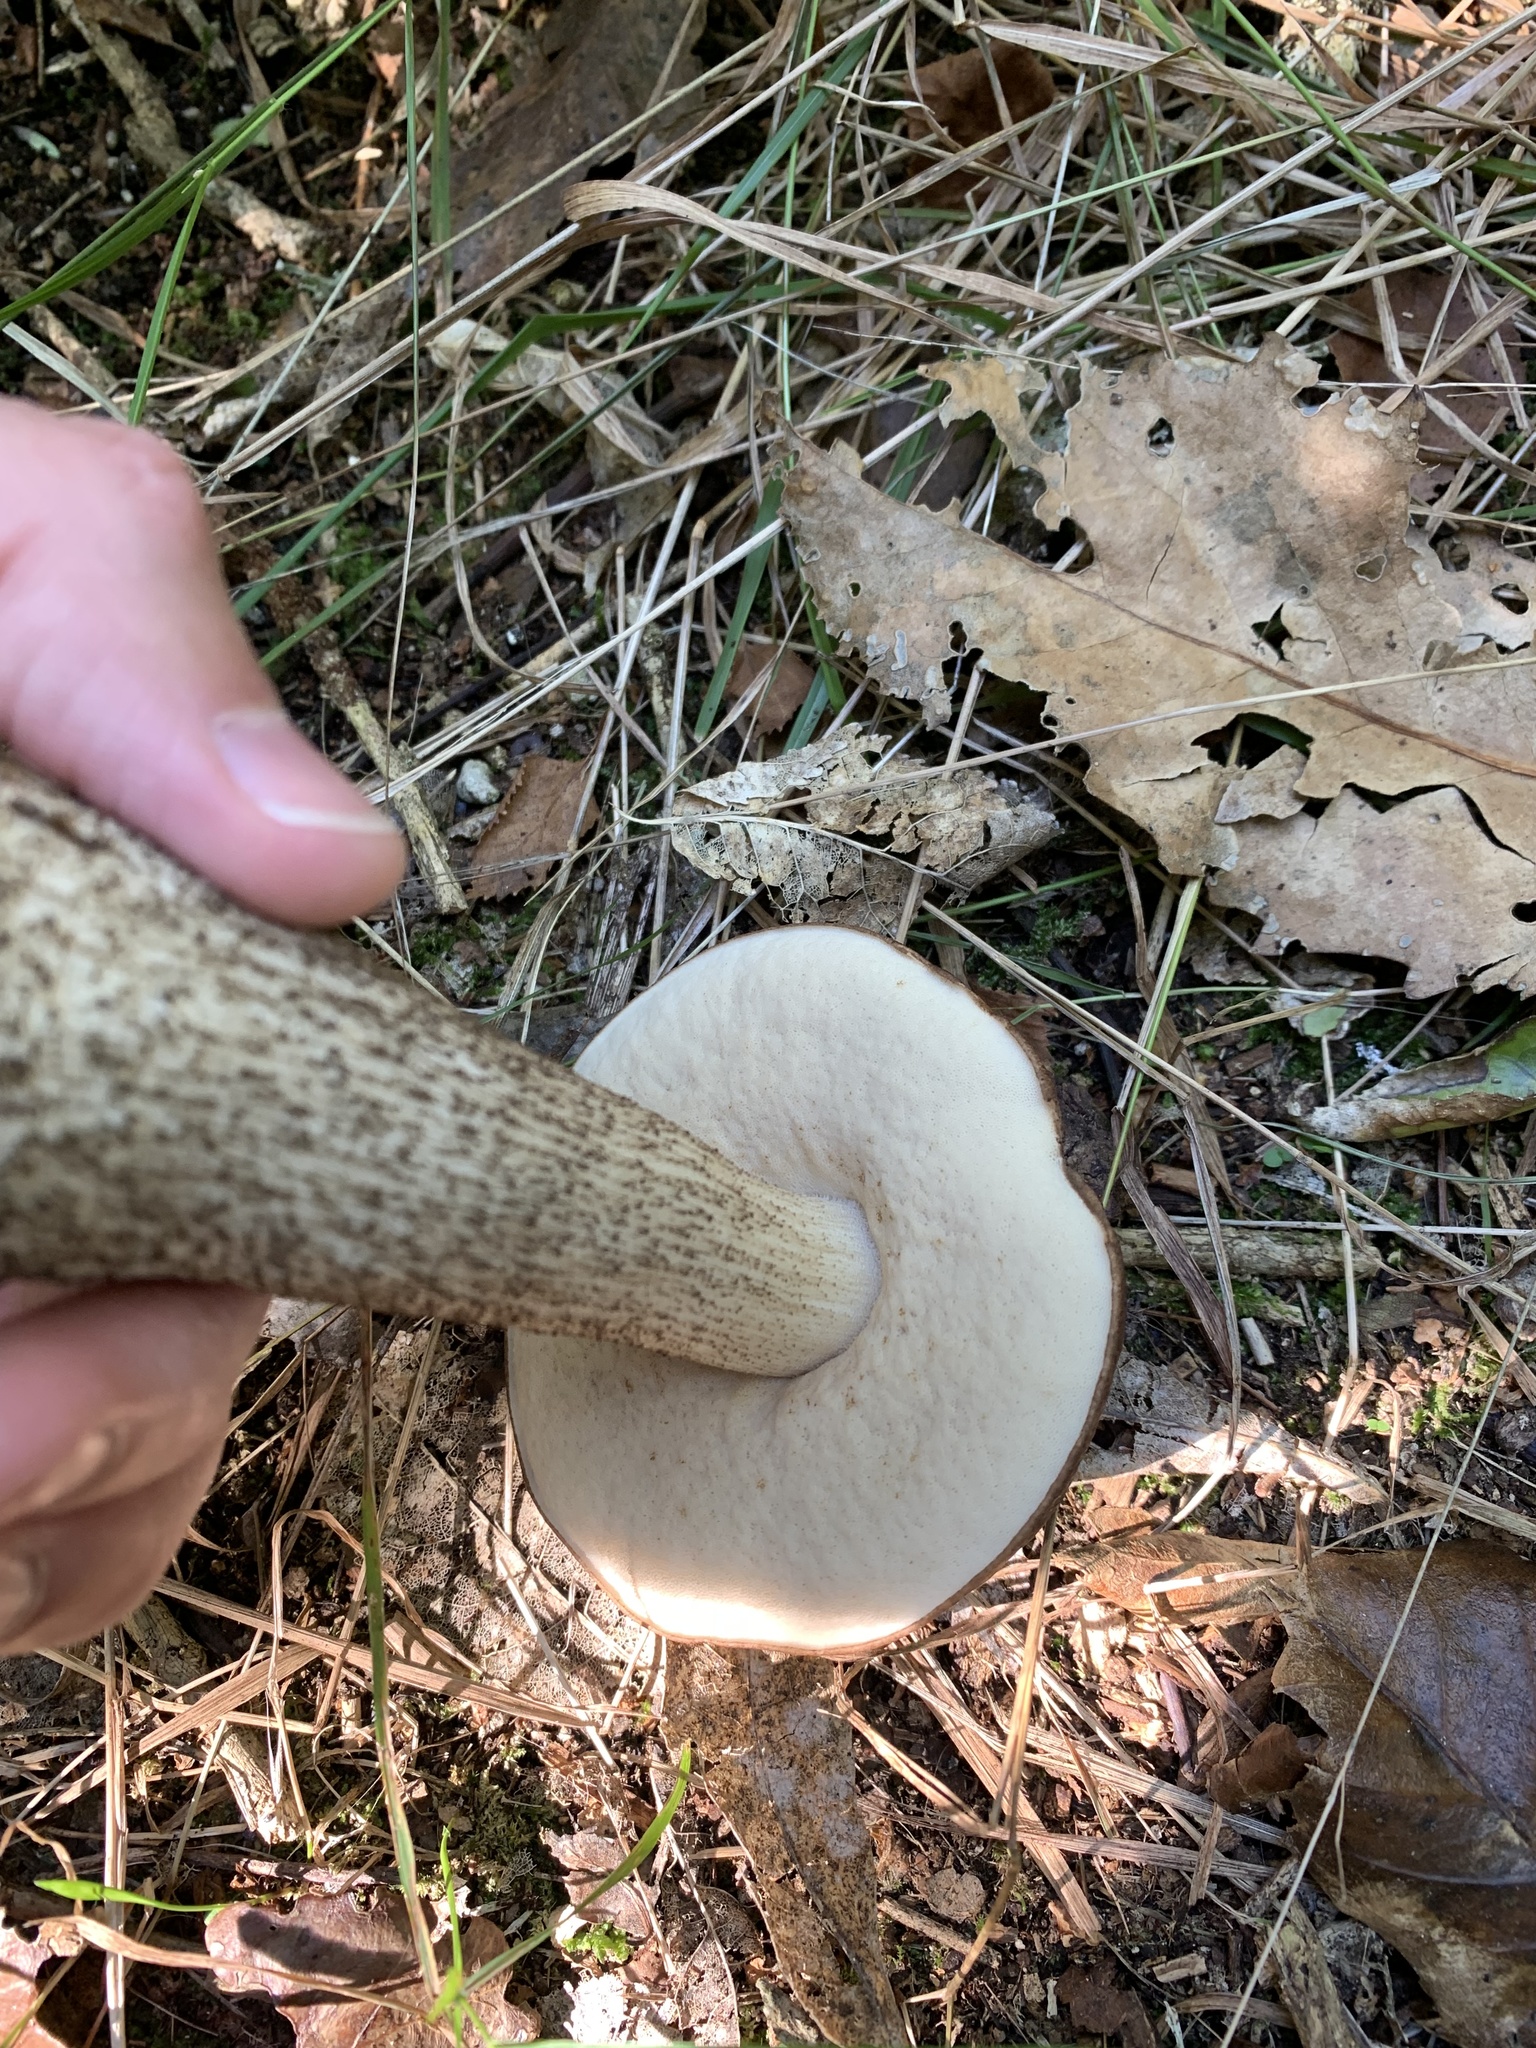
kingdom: Fungi
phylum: Basidiomycota
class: Agaricomycetes
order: Boletales
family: Boletaceae
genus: Leccinum
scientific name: Leccinum scabrum
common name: Blushing bolete
